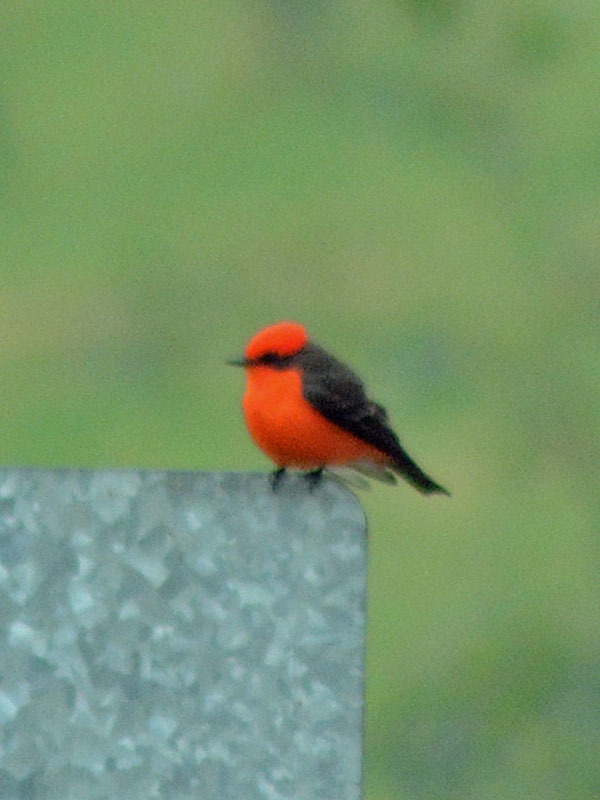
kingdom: Animalia
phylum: Chordata
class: Aves
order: Passeriformes
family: Tyrannidae
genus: Pyrocephalus
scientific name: Pyrocephalus rubinus
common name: Vermilion flycatcher
